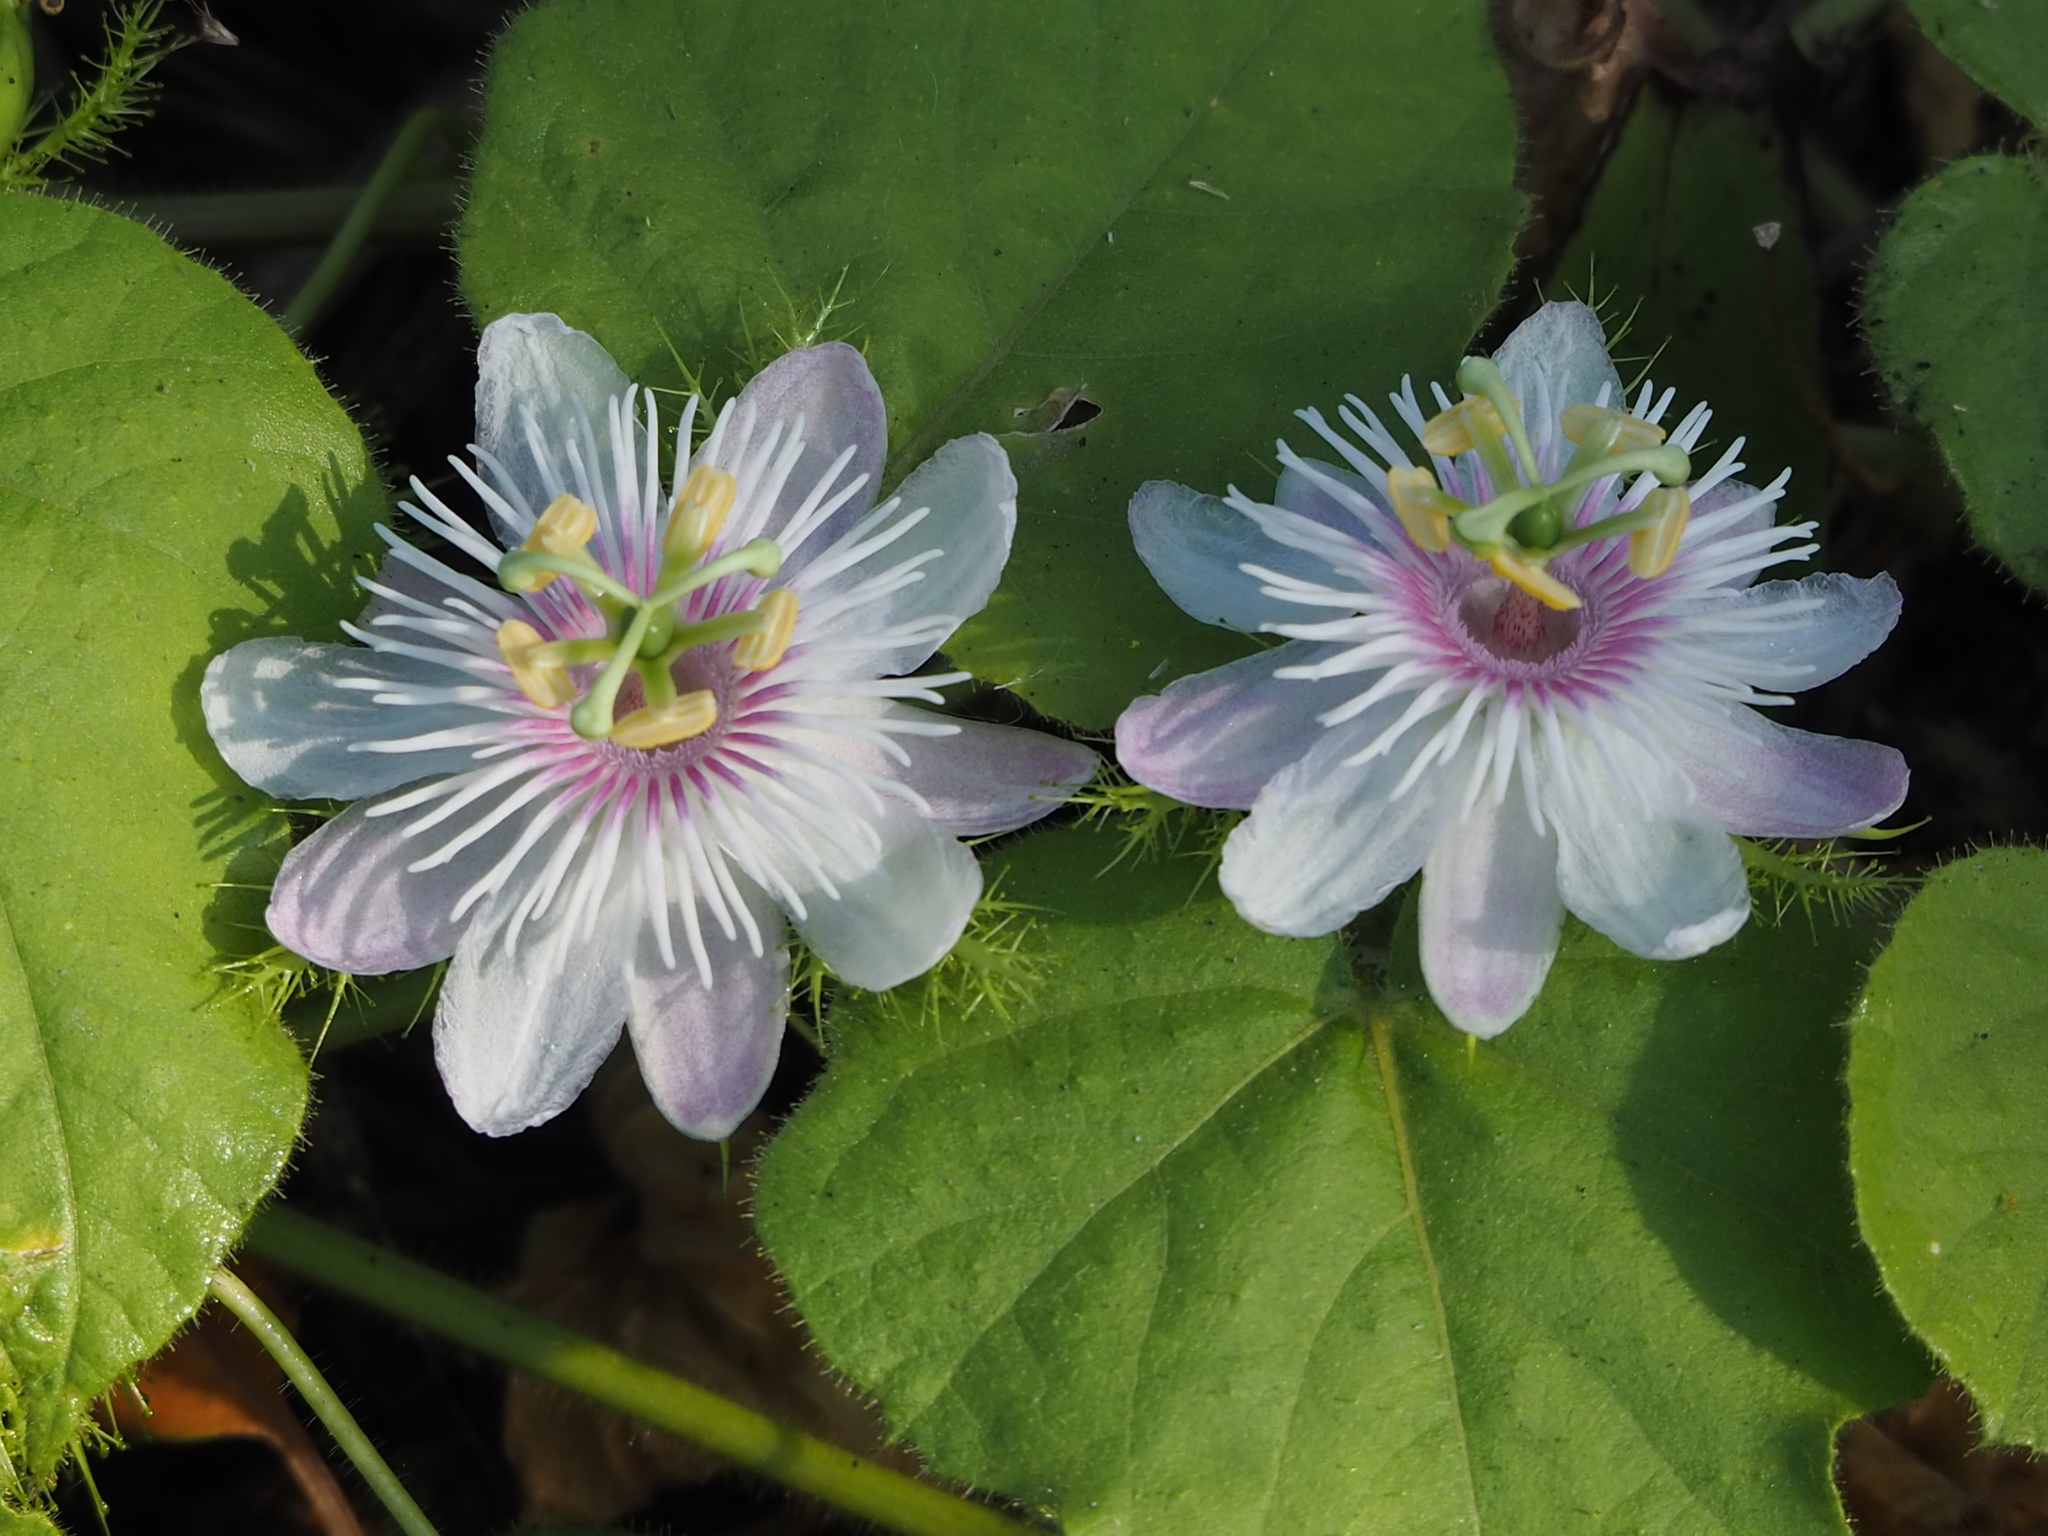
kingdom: Plantae
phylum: Tracheophyta
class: Magnoliopsida
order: Malpighiales
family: Passifloraceae
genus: Passiflora
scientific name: Passiflora vesicaria
